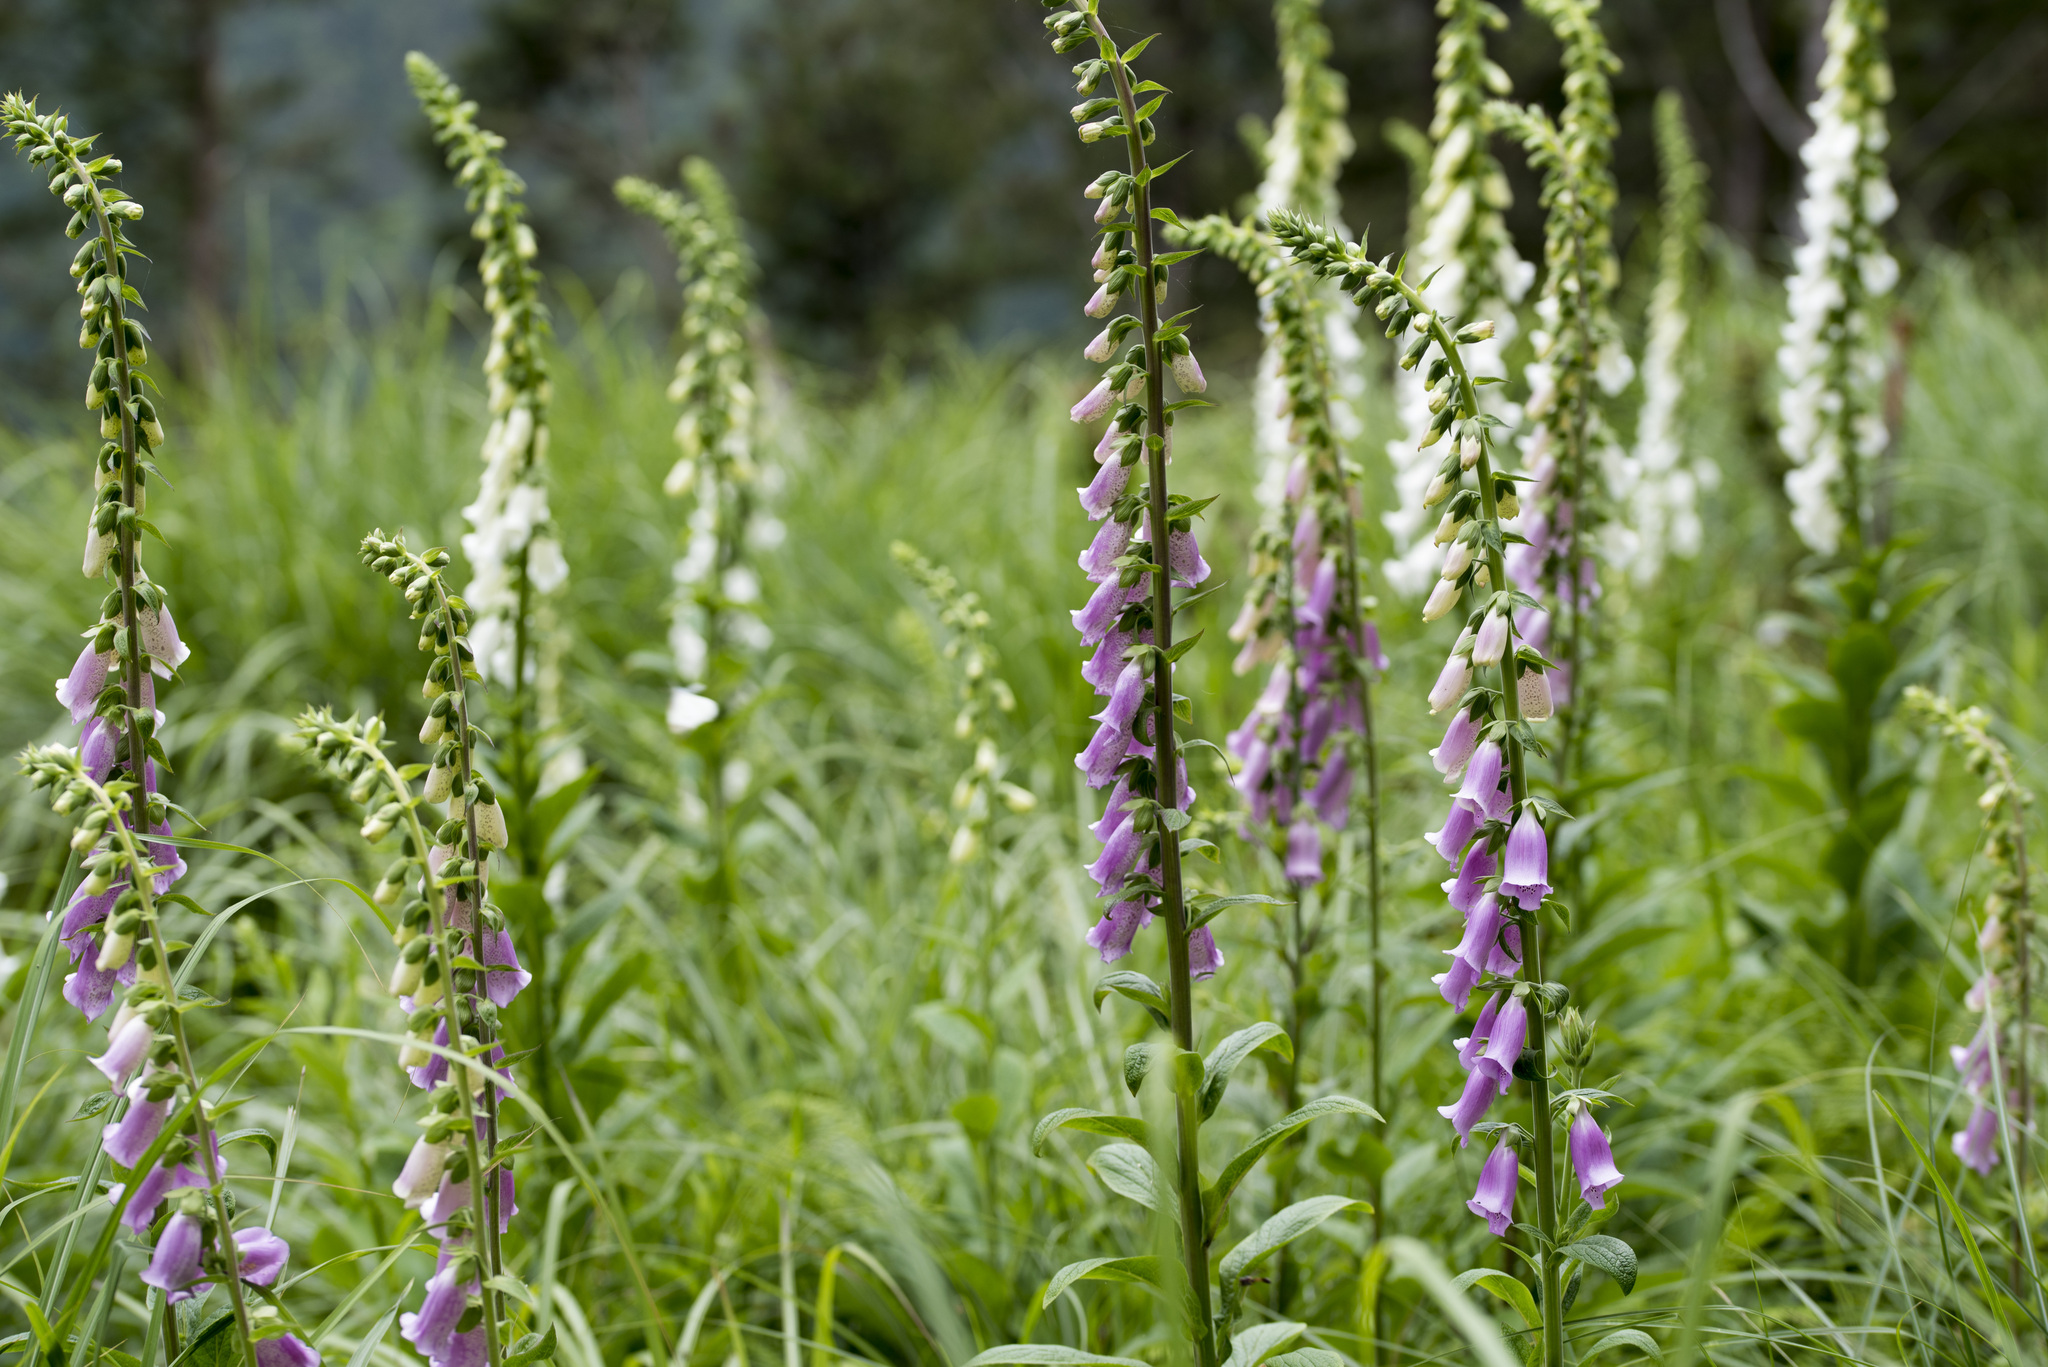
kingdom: Plantae
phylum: Tracheophyta
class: Magnoliopsida
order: Lamiales
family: Plantaginaceae
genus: Digitalis
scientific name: Digitalis purpurea
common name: Foxglove
